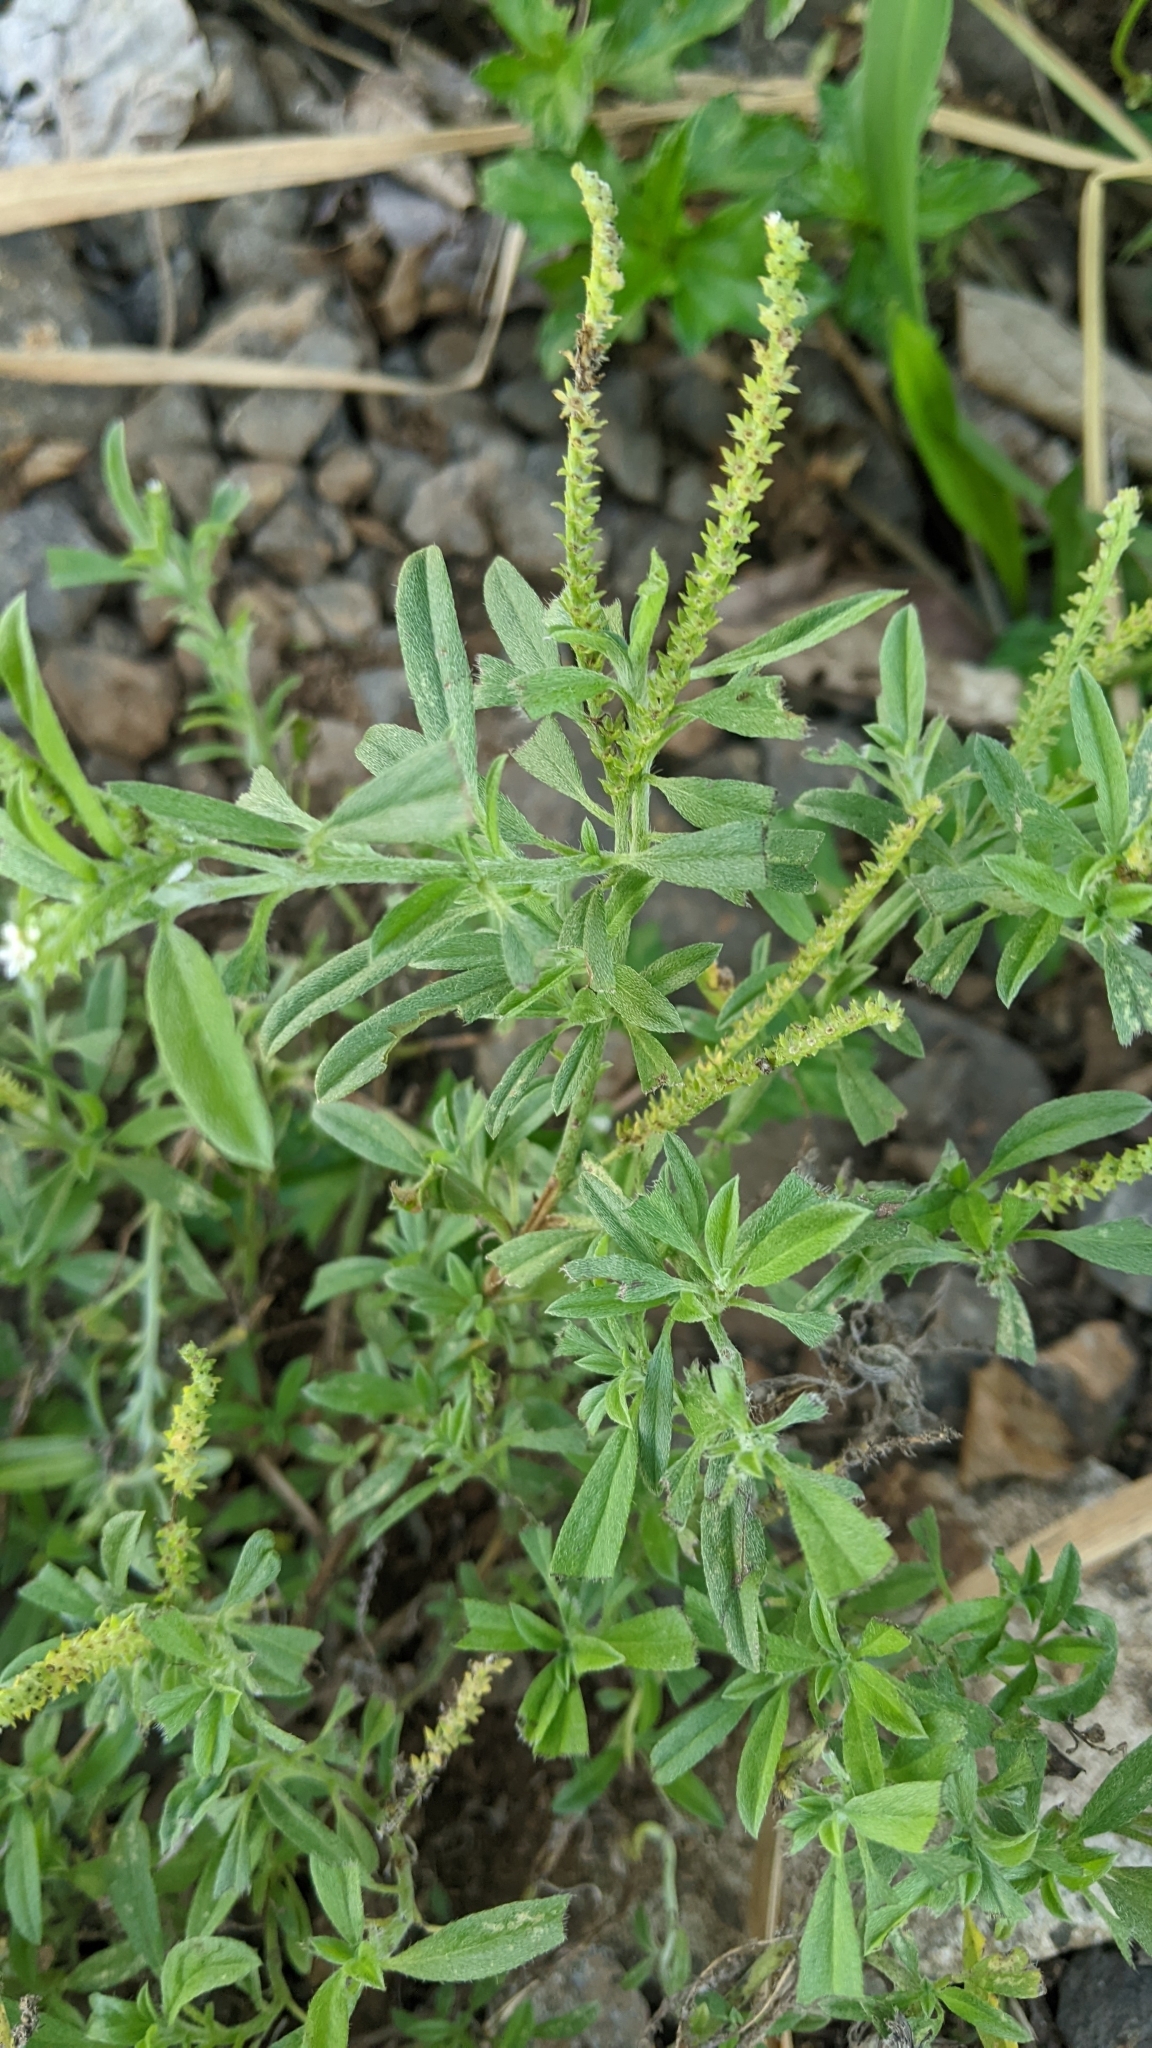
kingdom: Plantae
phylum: Tracheophyta
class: Magnoliopsida
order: Boraginales
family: Heliotropiaceae
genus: Euploca
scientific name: Euploca procumbens
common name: Fourspike heliotrope
